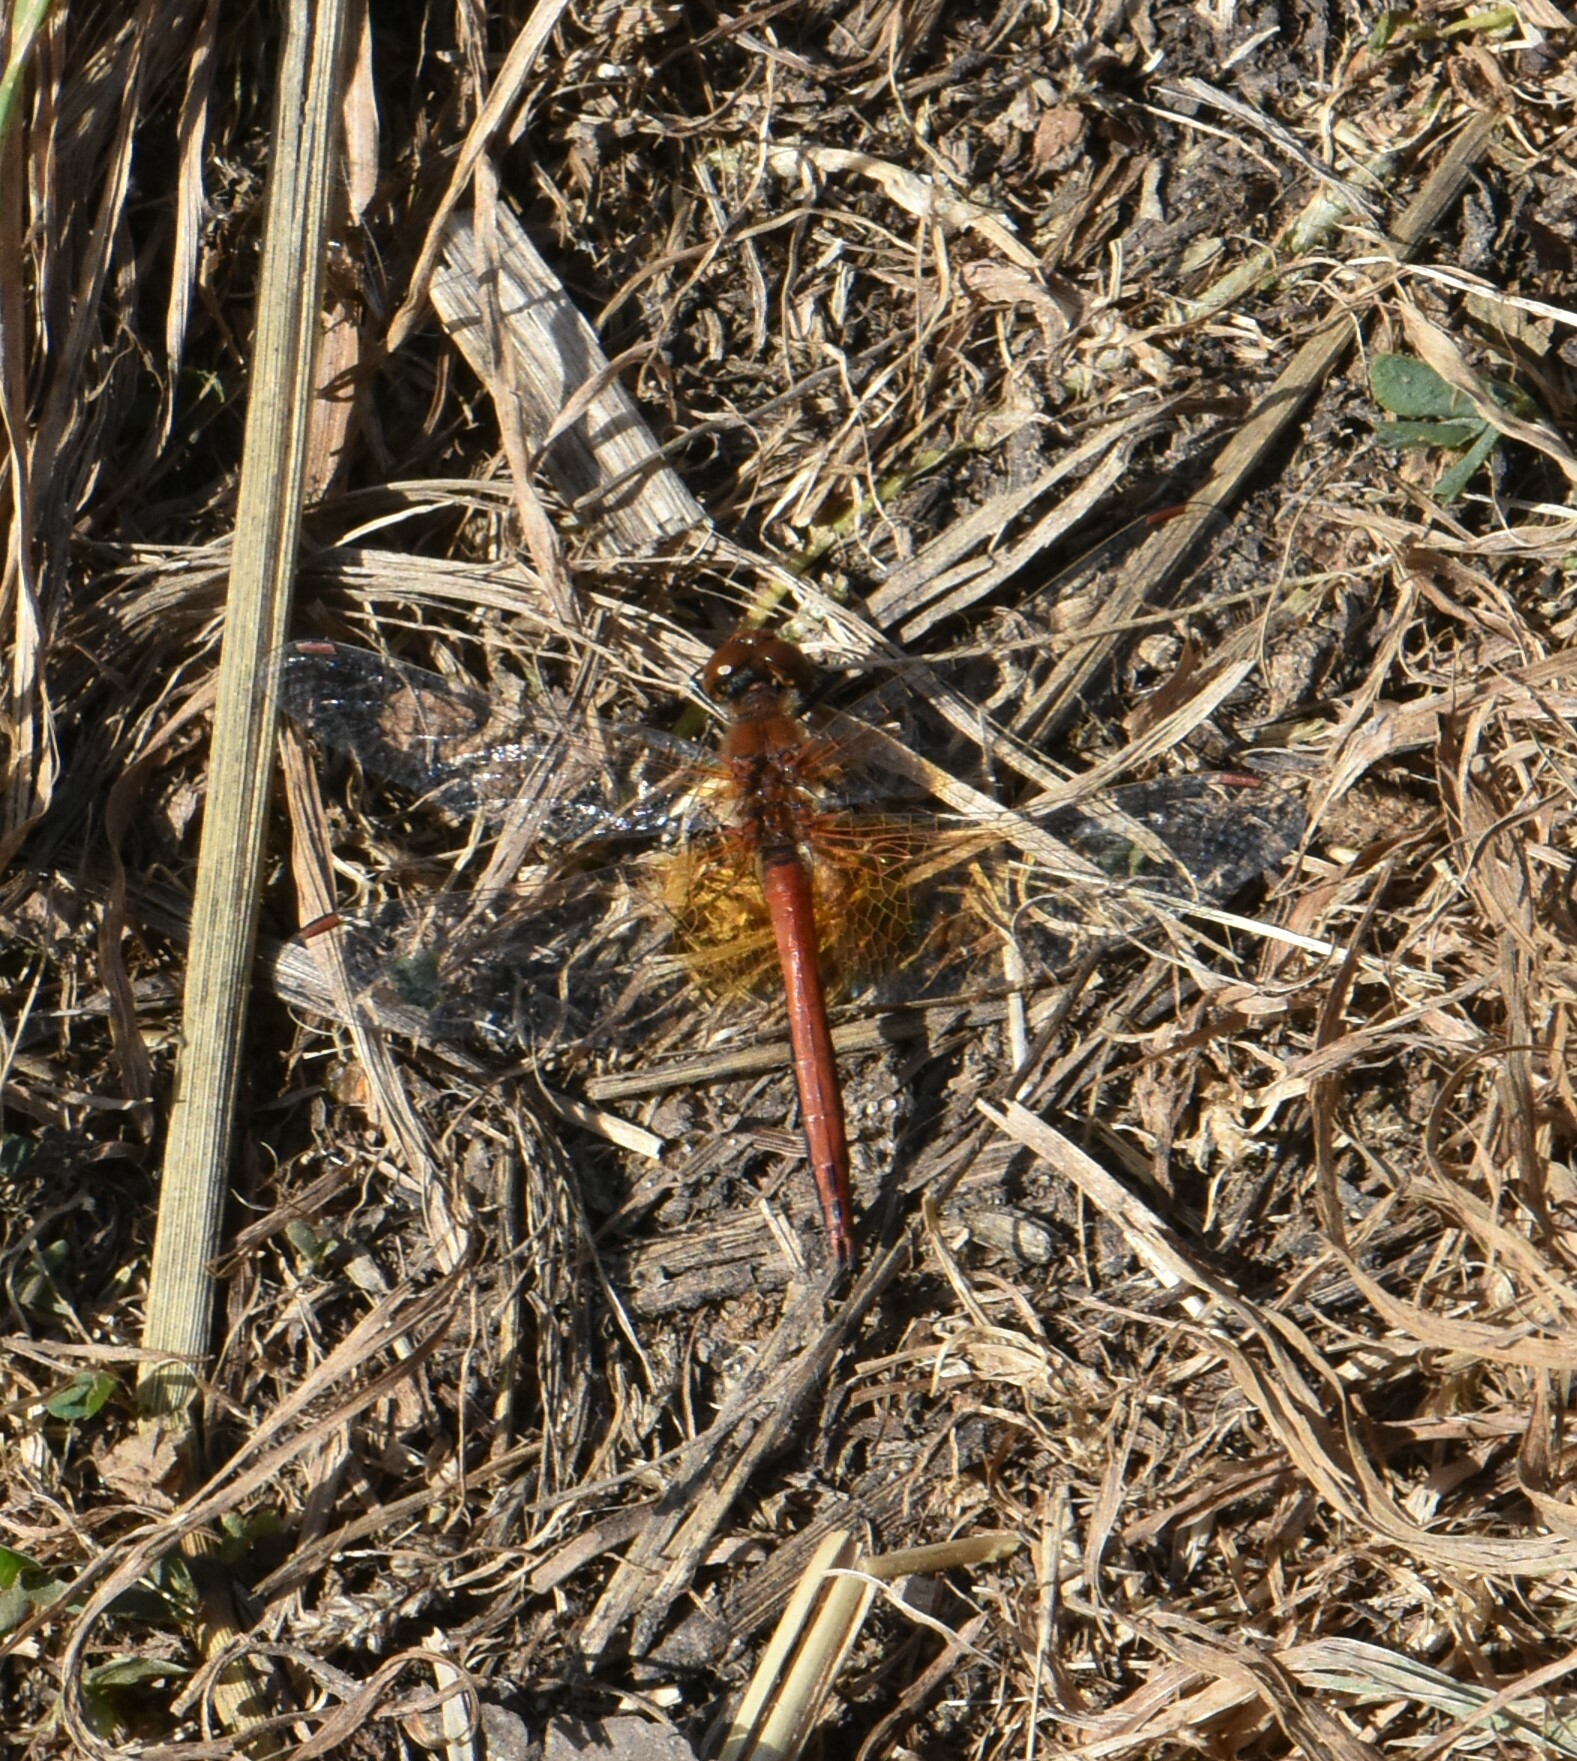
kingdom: Animalia
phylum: Arthropoda
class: Insecta
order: Odonata
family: Libellulidae
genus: Sympetrum
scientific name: Sympetrum flaveolum
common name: Yellow-winged darter
